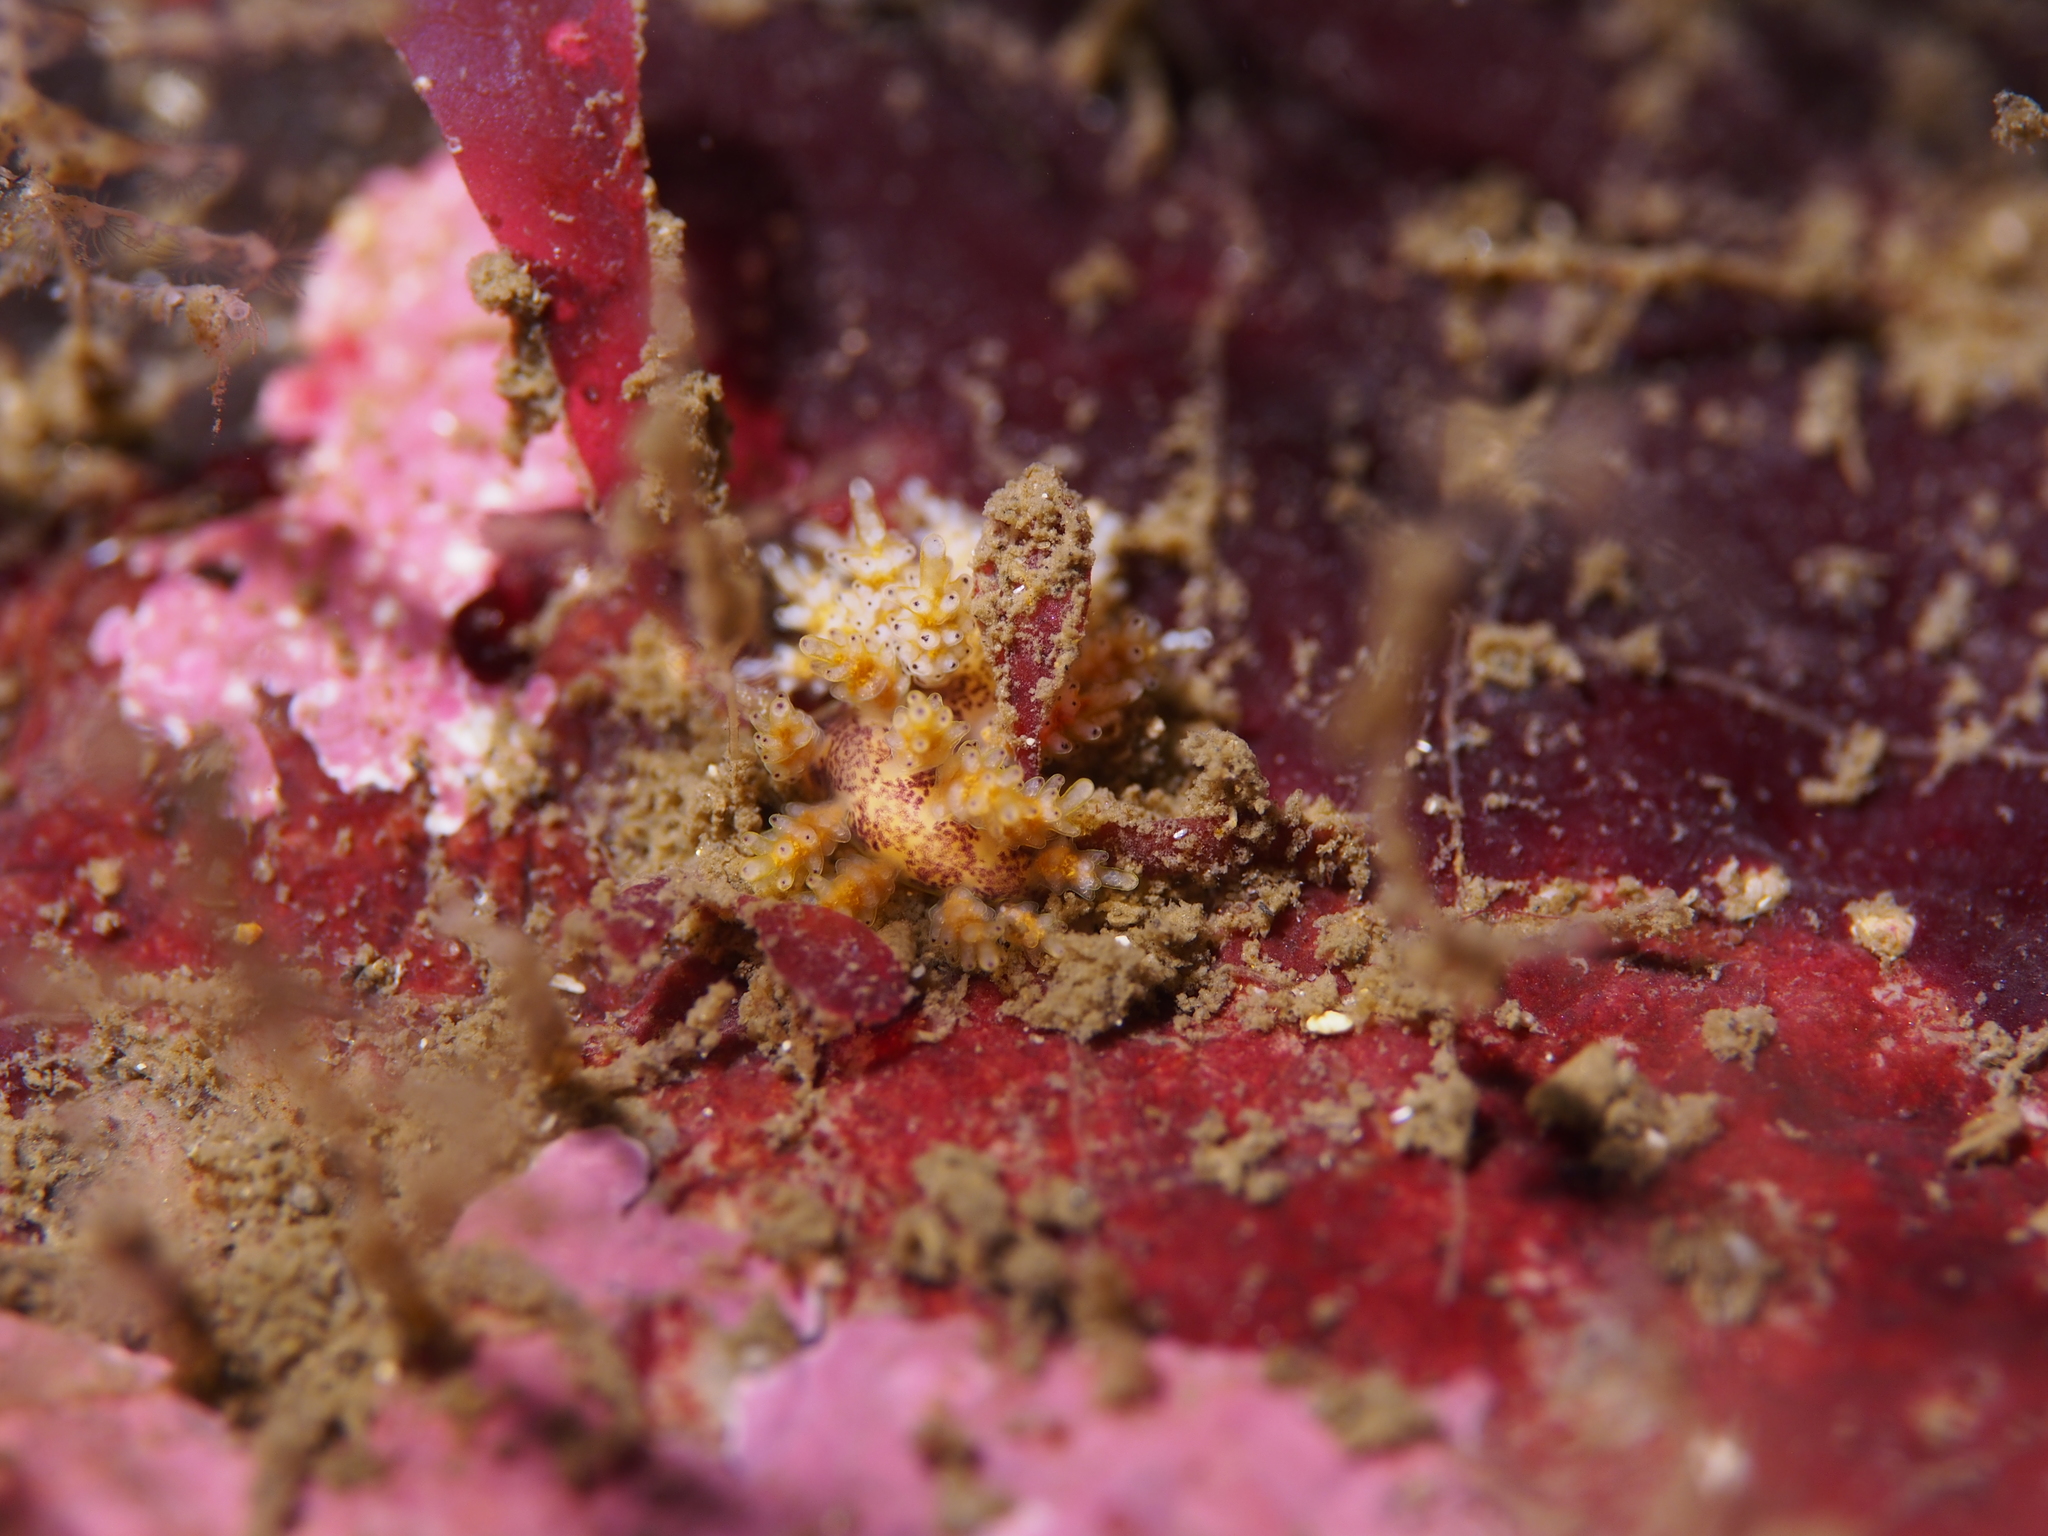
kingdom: Animalia
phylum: Mollusca
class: Gastropoda
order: Nudibranchia
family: Dotidae
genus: Doto
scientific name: Doto maculata
